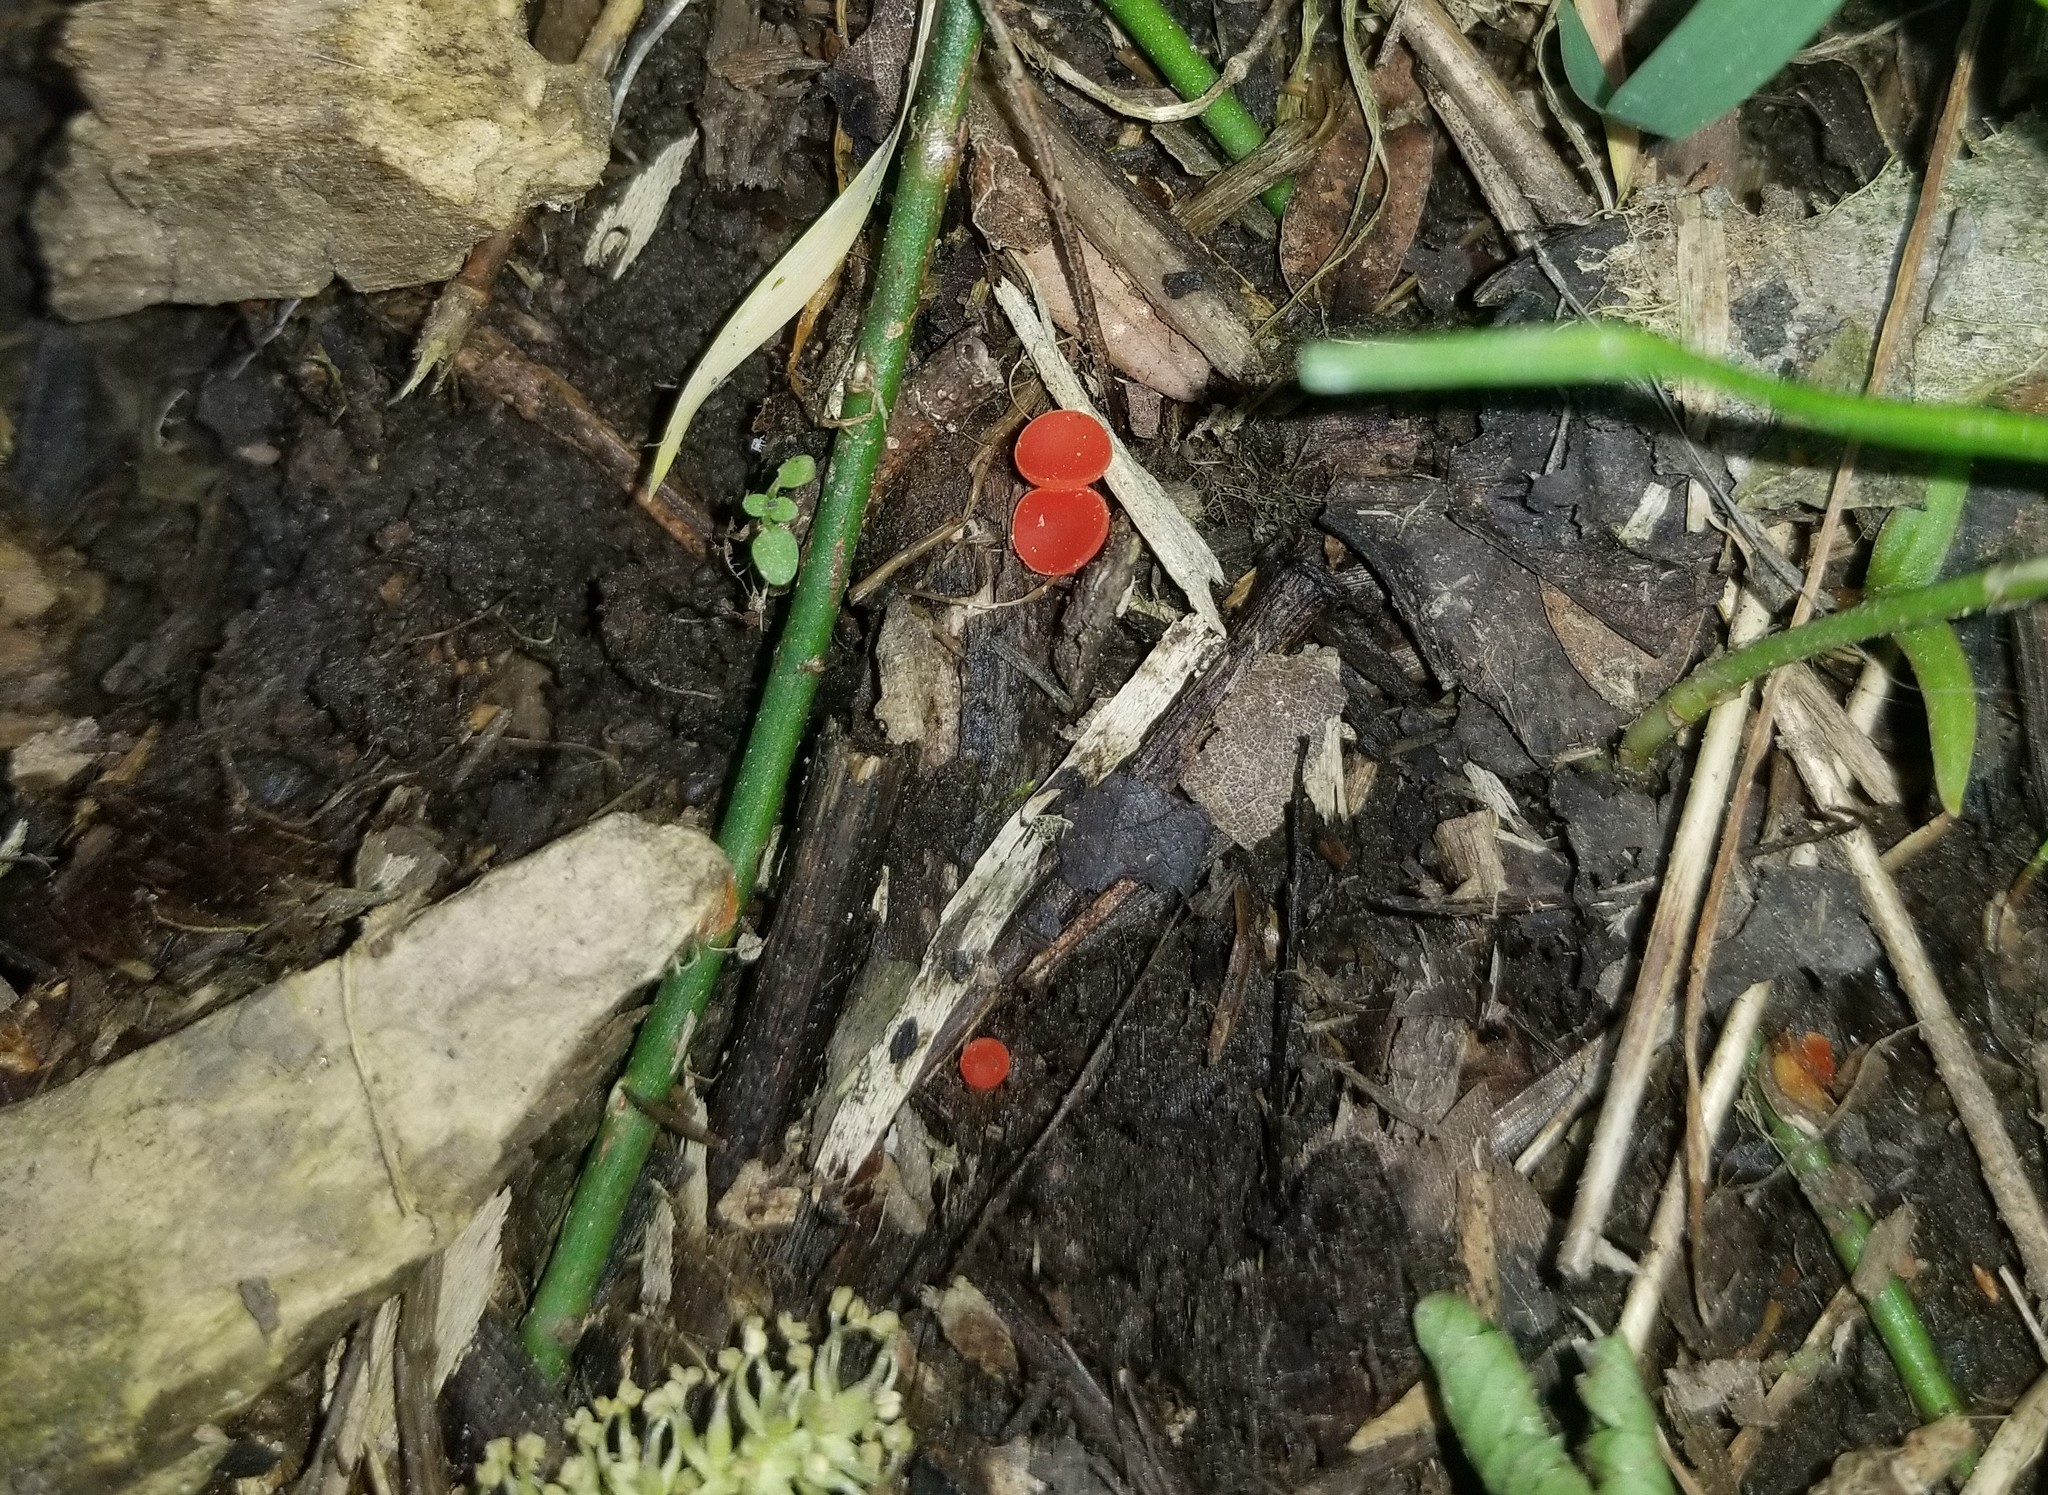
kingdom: Fungi
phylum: Ascomycota
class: Pezizomycetes
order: Pezizales
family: Sarcoscyphaceae
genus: Sarcoscypha
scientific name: Sarcoscypha occidentalis
